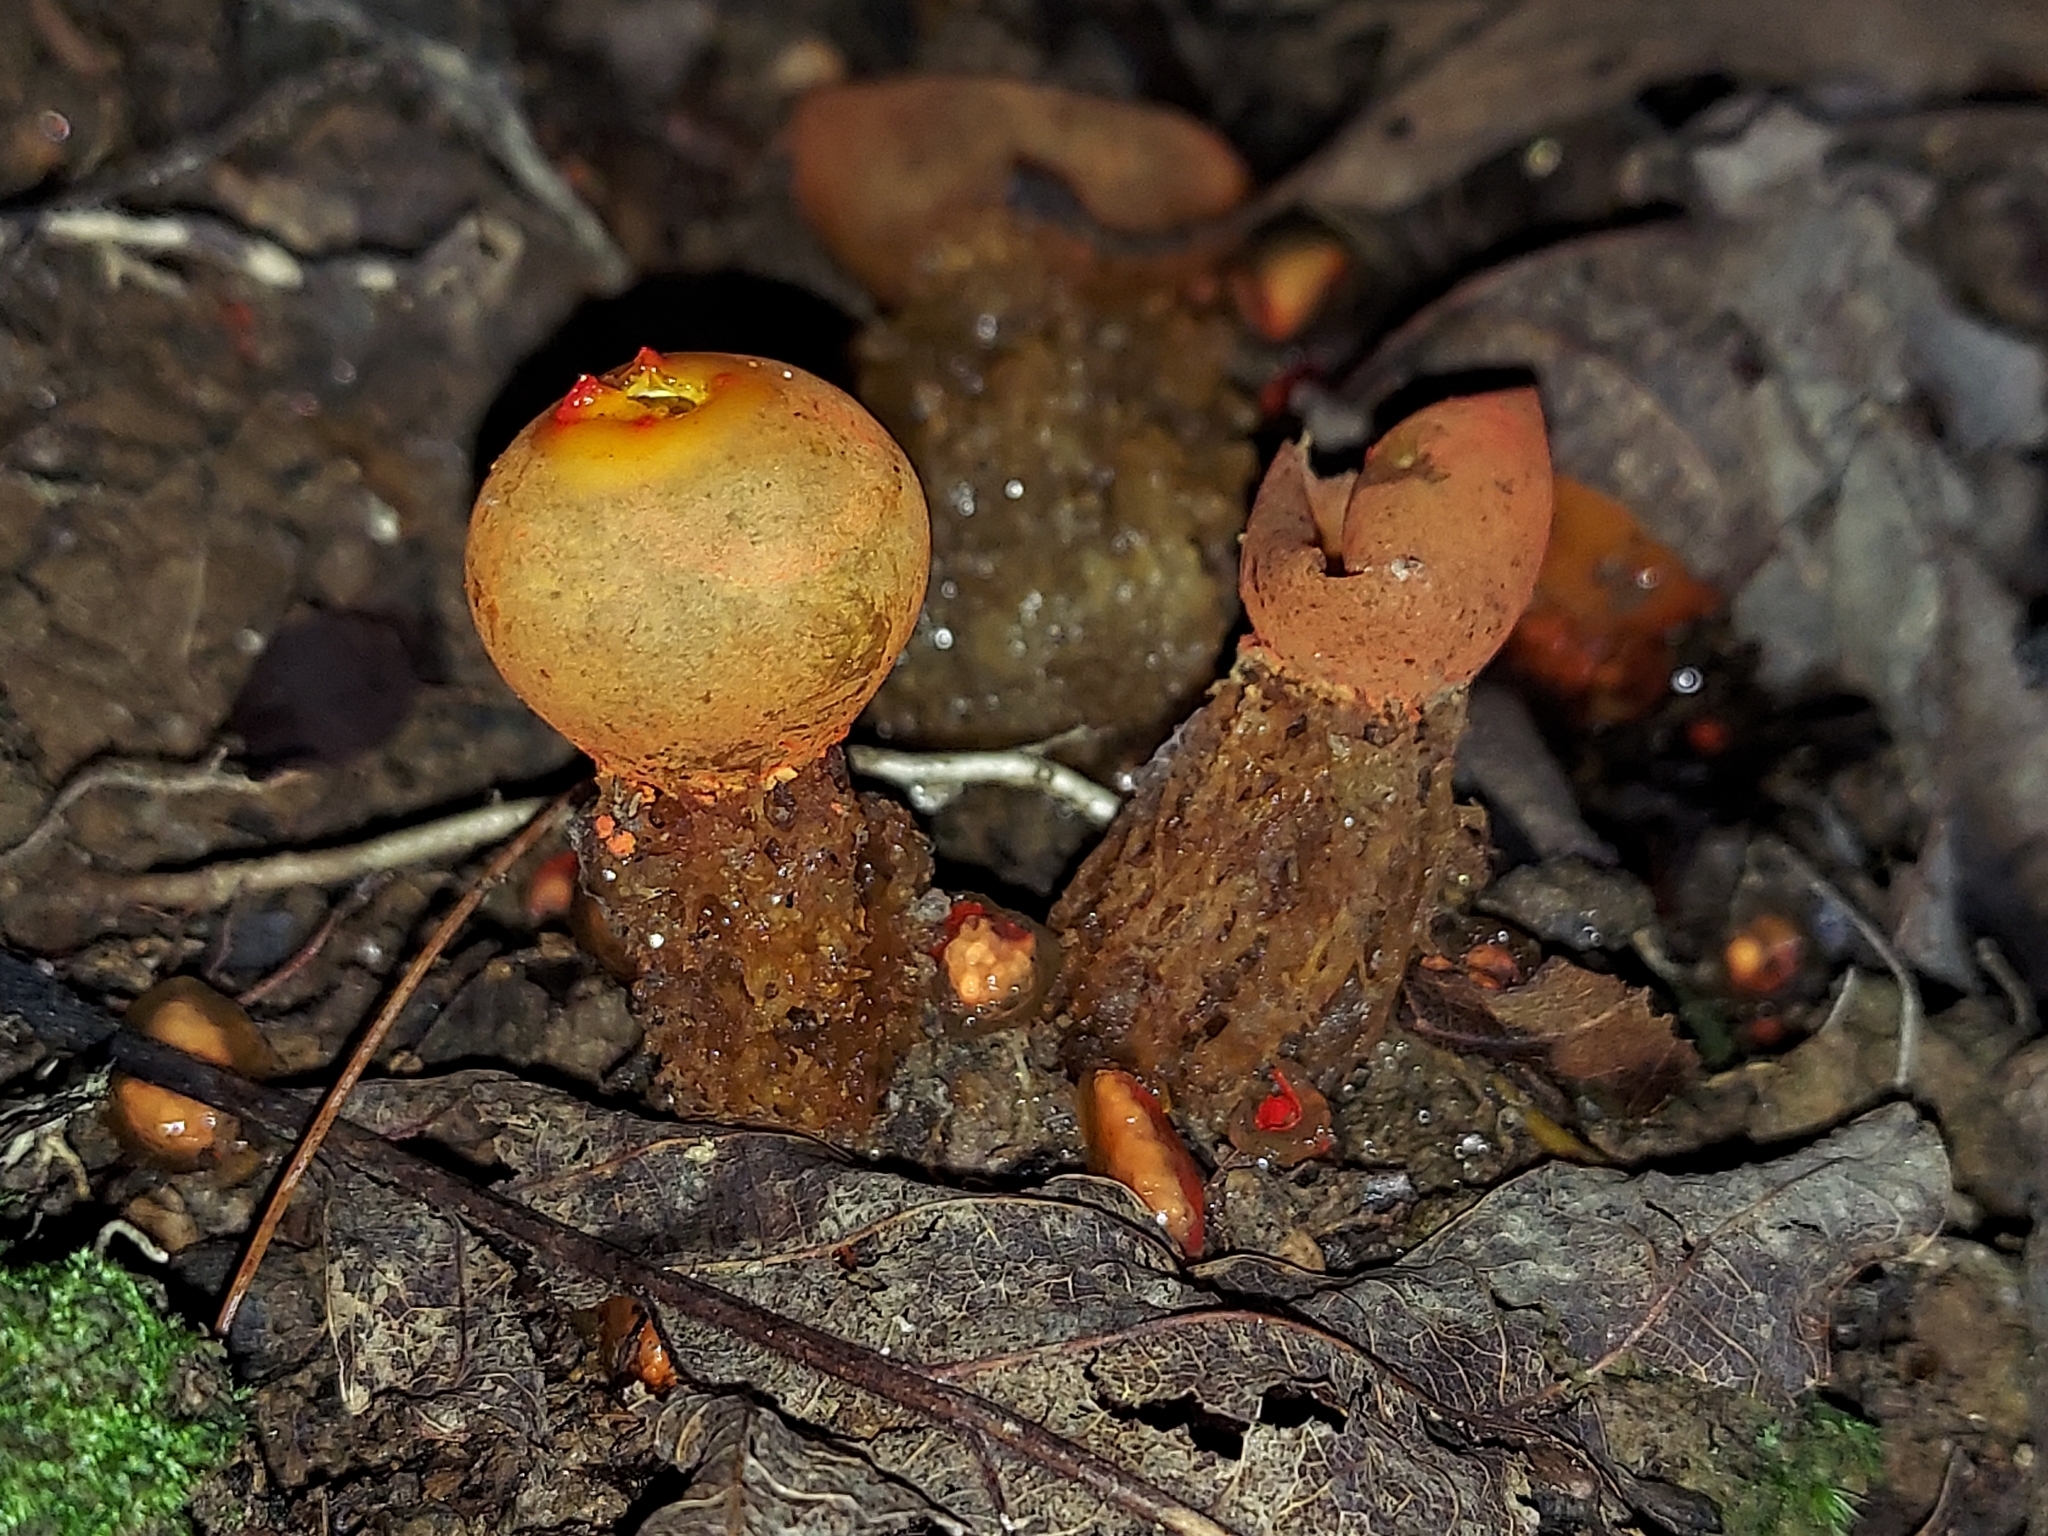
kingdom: Fungi
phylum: Basidiomycota
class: Agaricomycetes
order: Boletales
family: Calostomataceae
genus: Calostoma
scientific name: Calostoma cinnabarinum
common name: Stalked puffball-in-aspic
